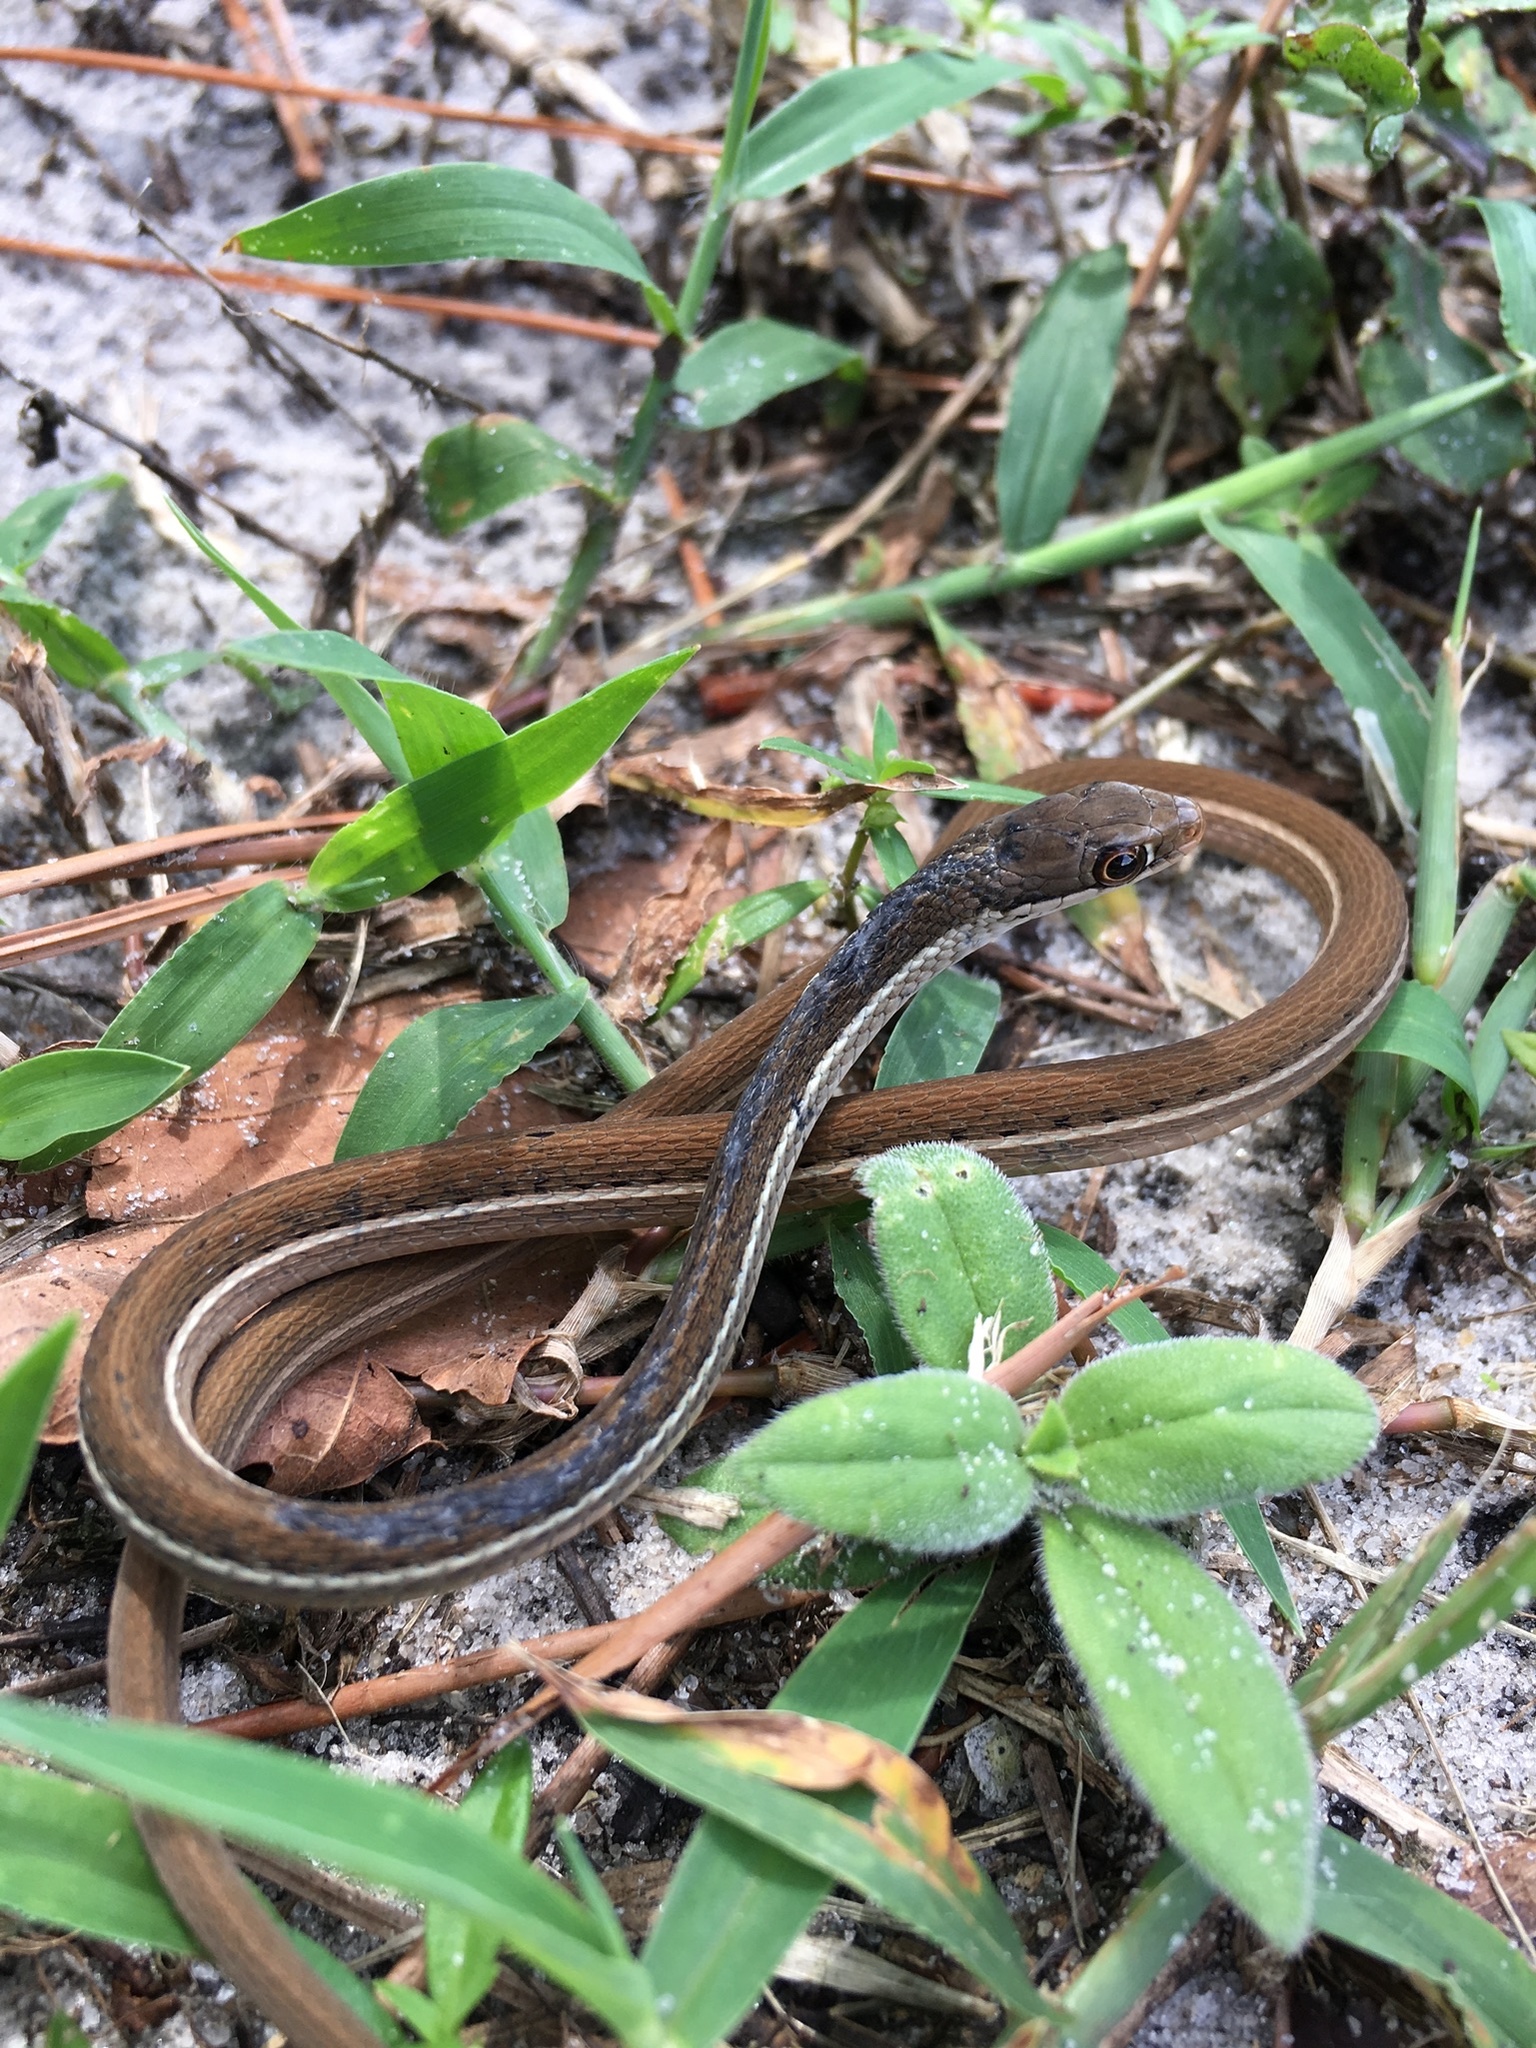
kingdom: Animalia
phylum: Chordata
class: Squamata
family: Colubridae
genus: Thamnophis
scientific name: Thamnophis saurita
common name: Eastern ribbonsnake
